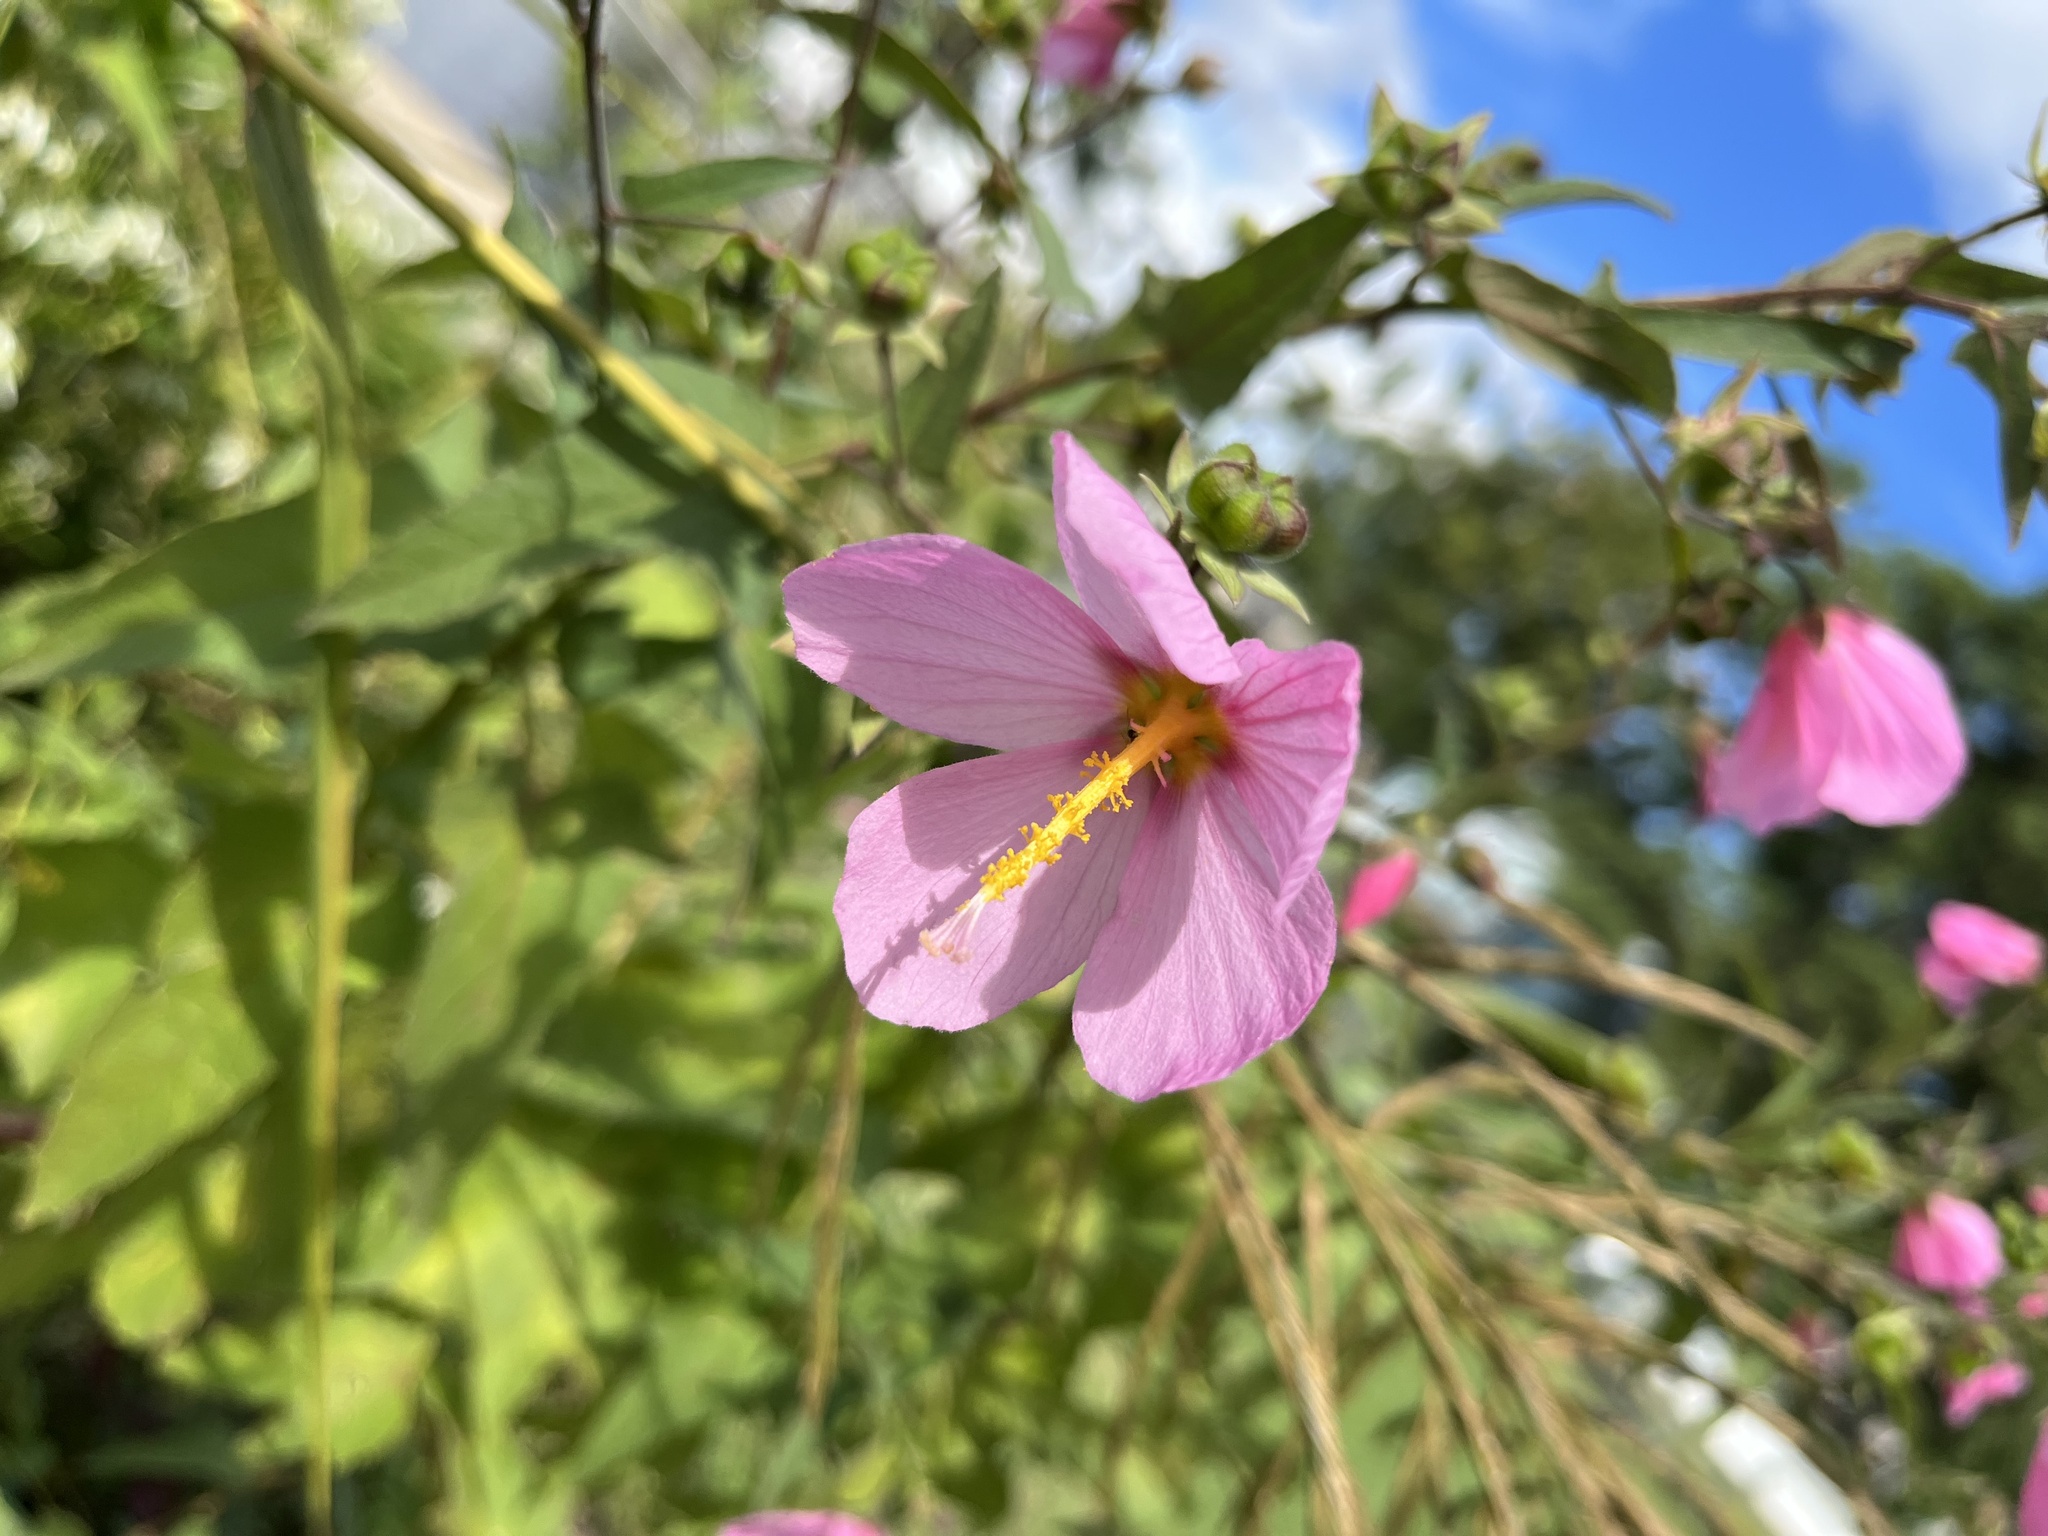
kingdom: Plantae
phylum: Tracheophyta
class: Magnoliopsida
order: Malvales
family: Malvaceae
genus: Kosteletzkya
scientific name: Kosteletzkya pentacarpos
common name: Virginia saltmarsh mallow
